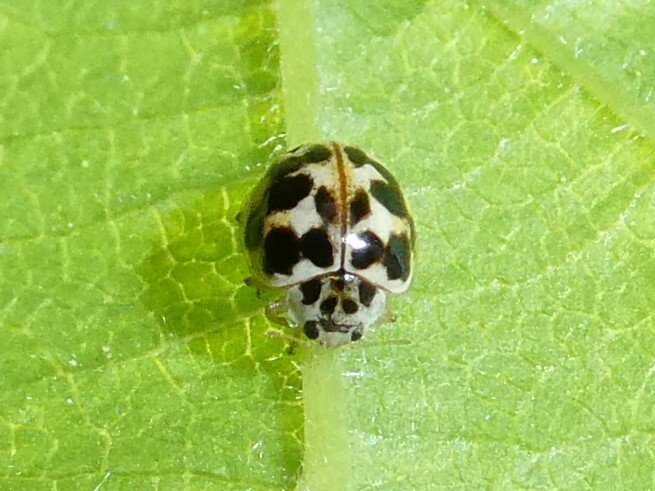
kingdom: Animalia
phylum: Arthropoda
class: Insecta
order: Coleoptera
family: Coccinellidae
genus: Psyllobora
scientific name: Psyllobora vigintimaculata
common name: Ladybird beetle
